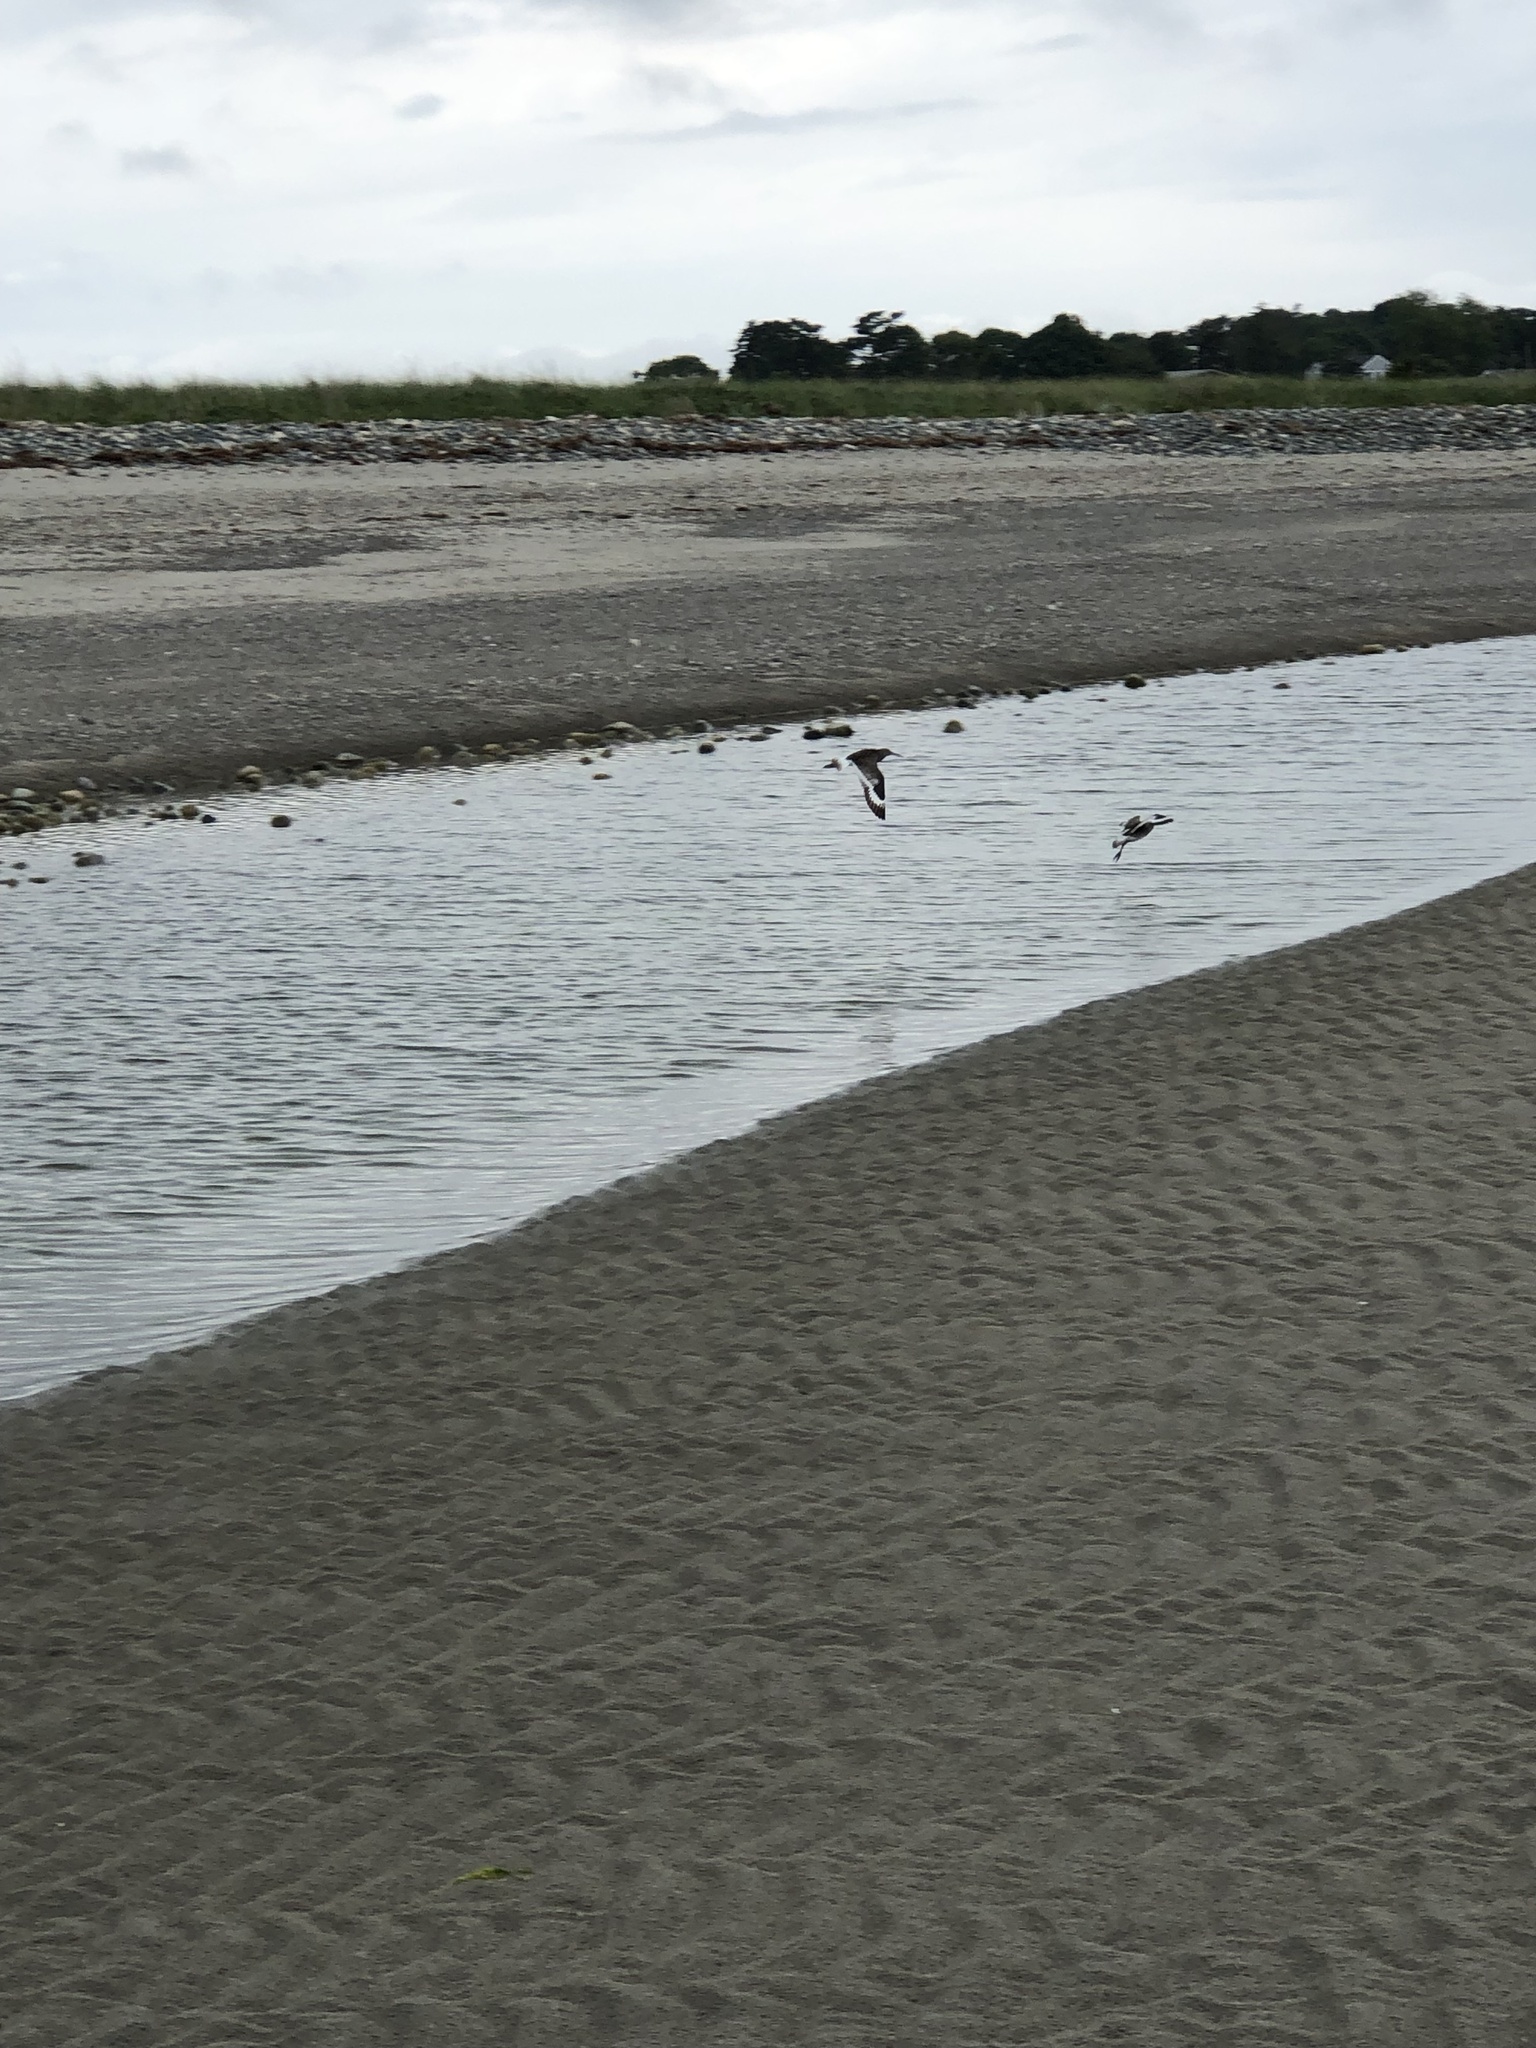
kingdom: Animalia
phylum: Chordata
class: Aves
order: Charadriiformes
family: Scolopacidae
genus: Tringa
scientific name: Tringa semipalmata
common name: Willet
